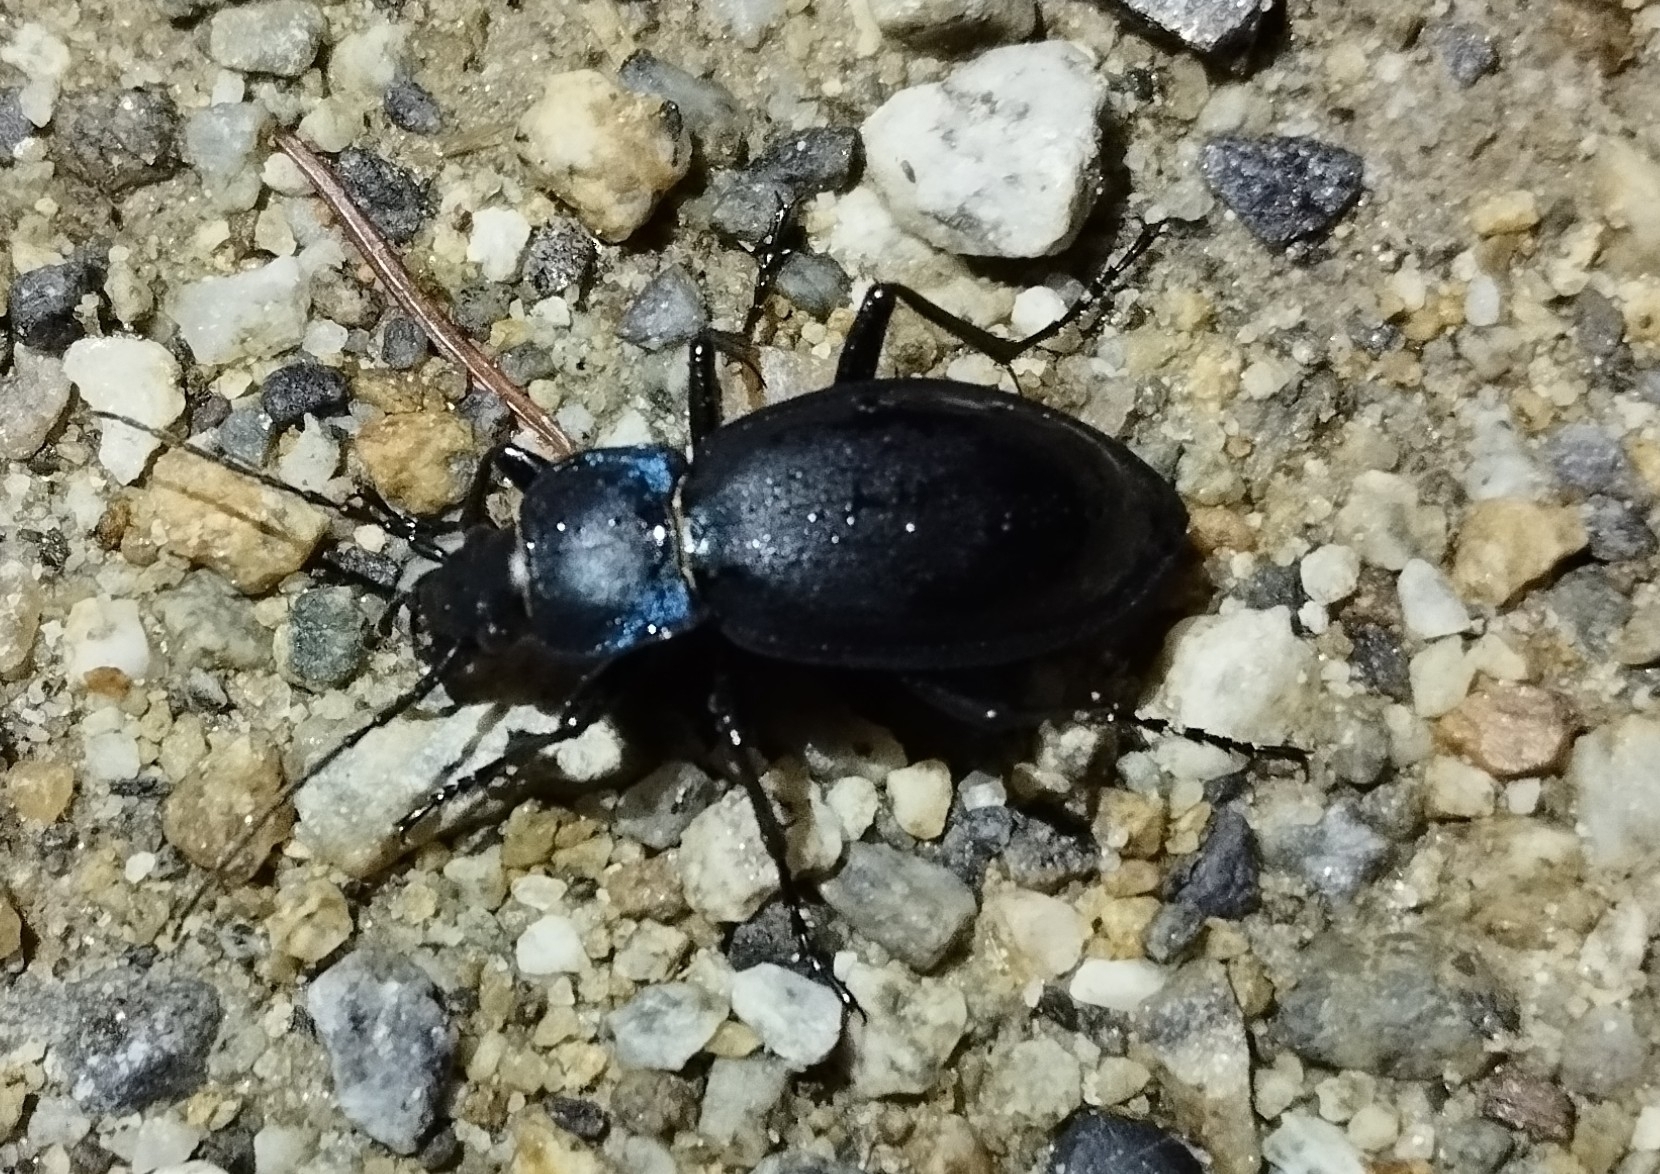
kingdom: Animalia
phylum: Arthropoda
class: Insecta
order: Coleoptera
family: Carabidae
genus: Carabus
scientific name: Carabus violaceus
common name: Violet ground beetle
